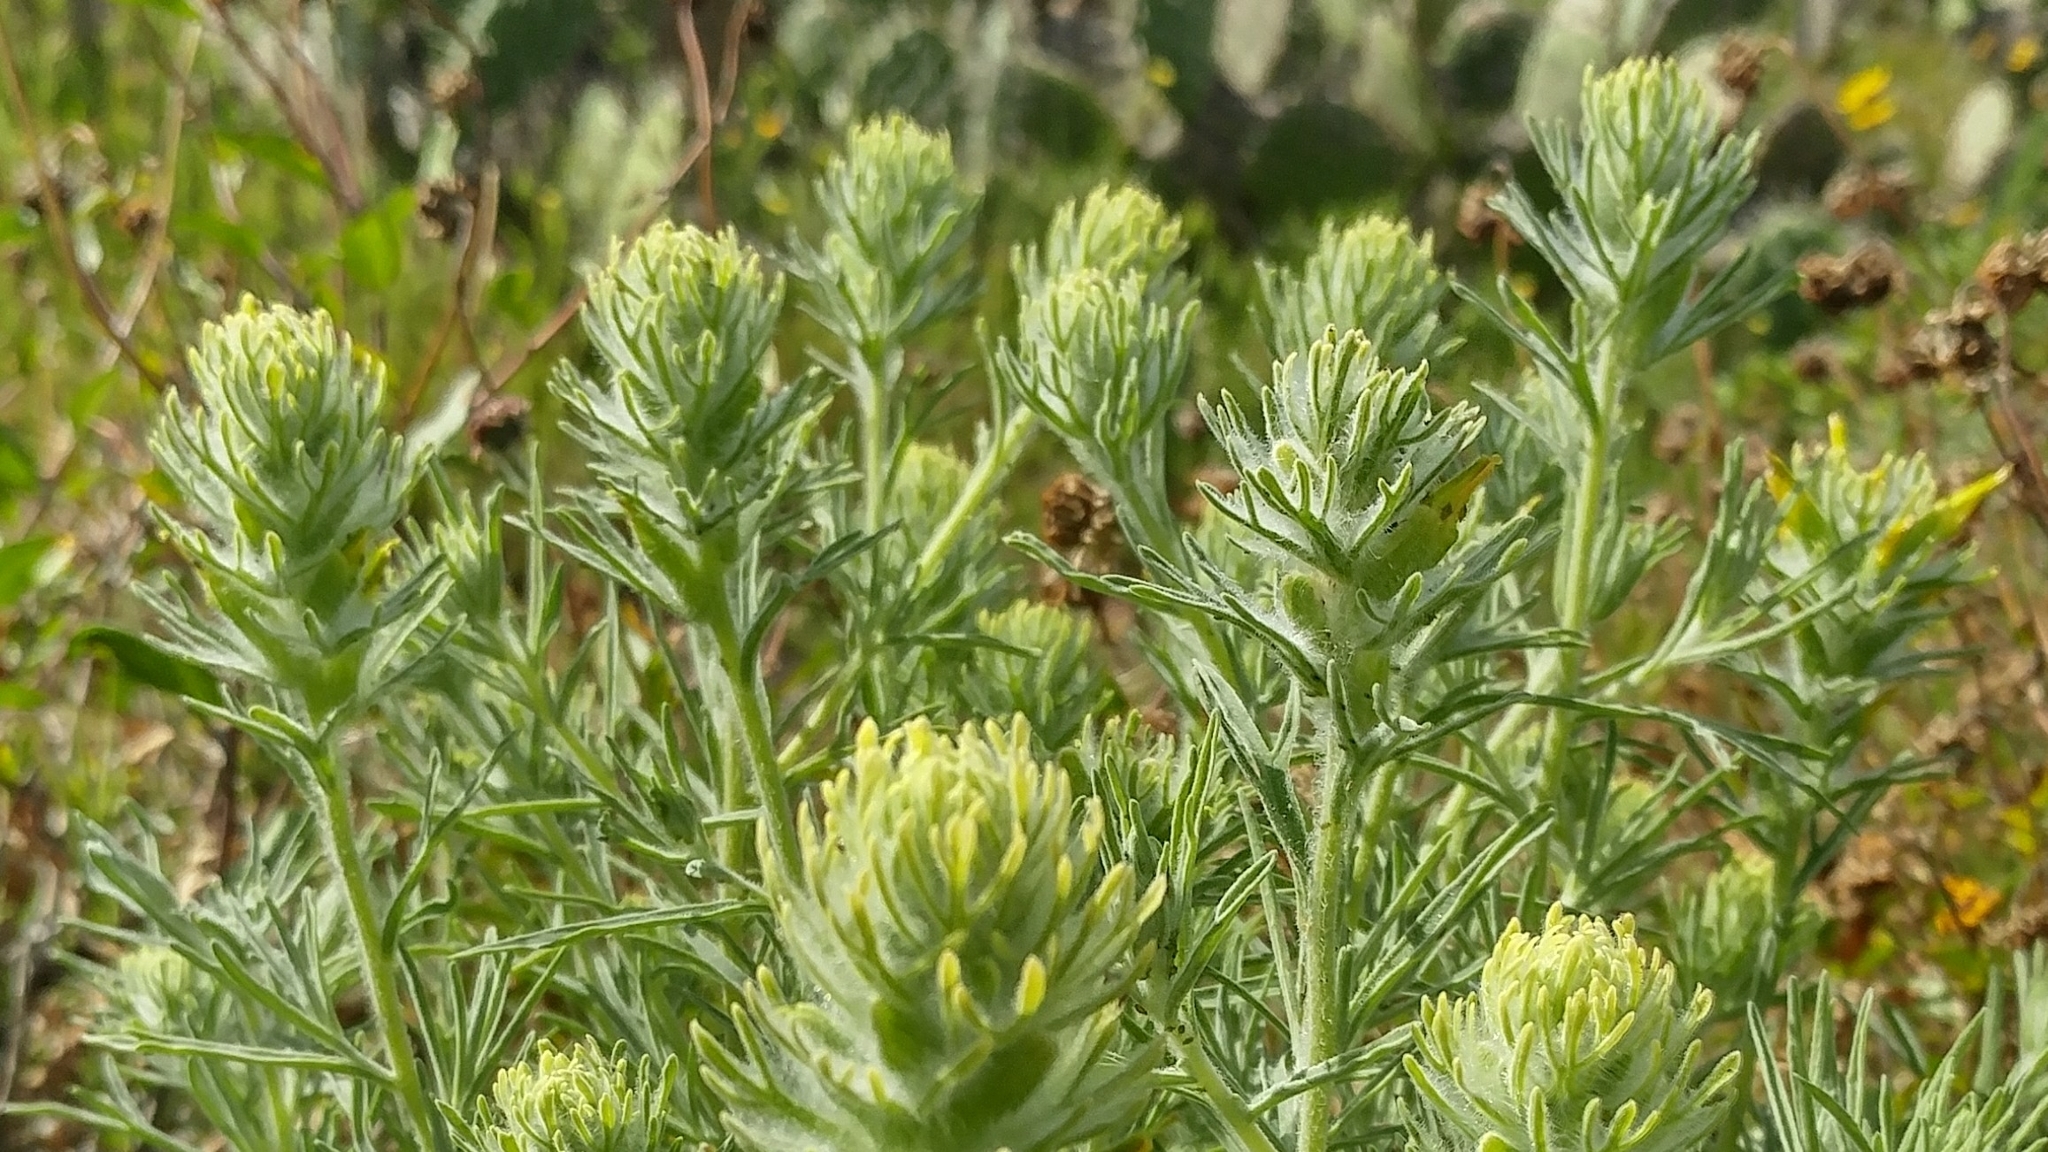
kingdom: Plantae
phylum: Tracheophyta
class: Magnoliopsida
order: Lamiales
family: Orobanchaceae
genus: Castilleja
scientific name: Castilleja grisea
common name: San clemente island indian paintbrush
